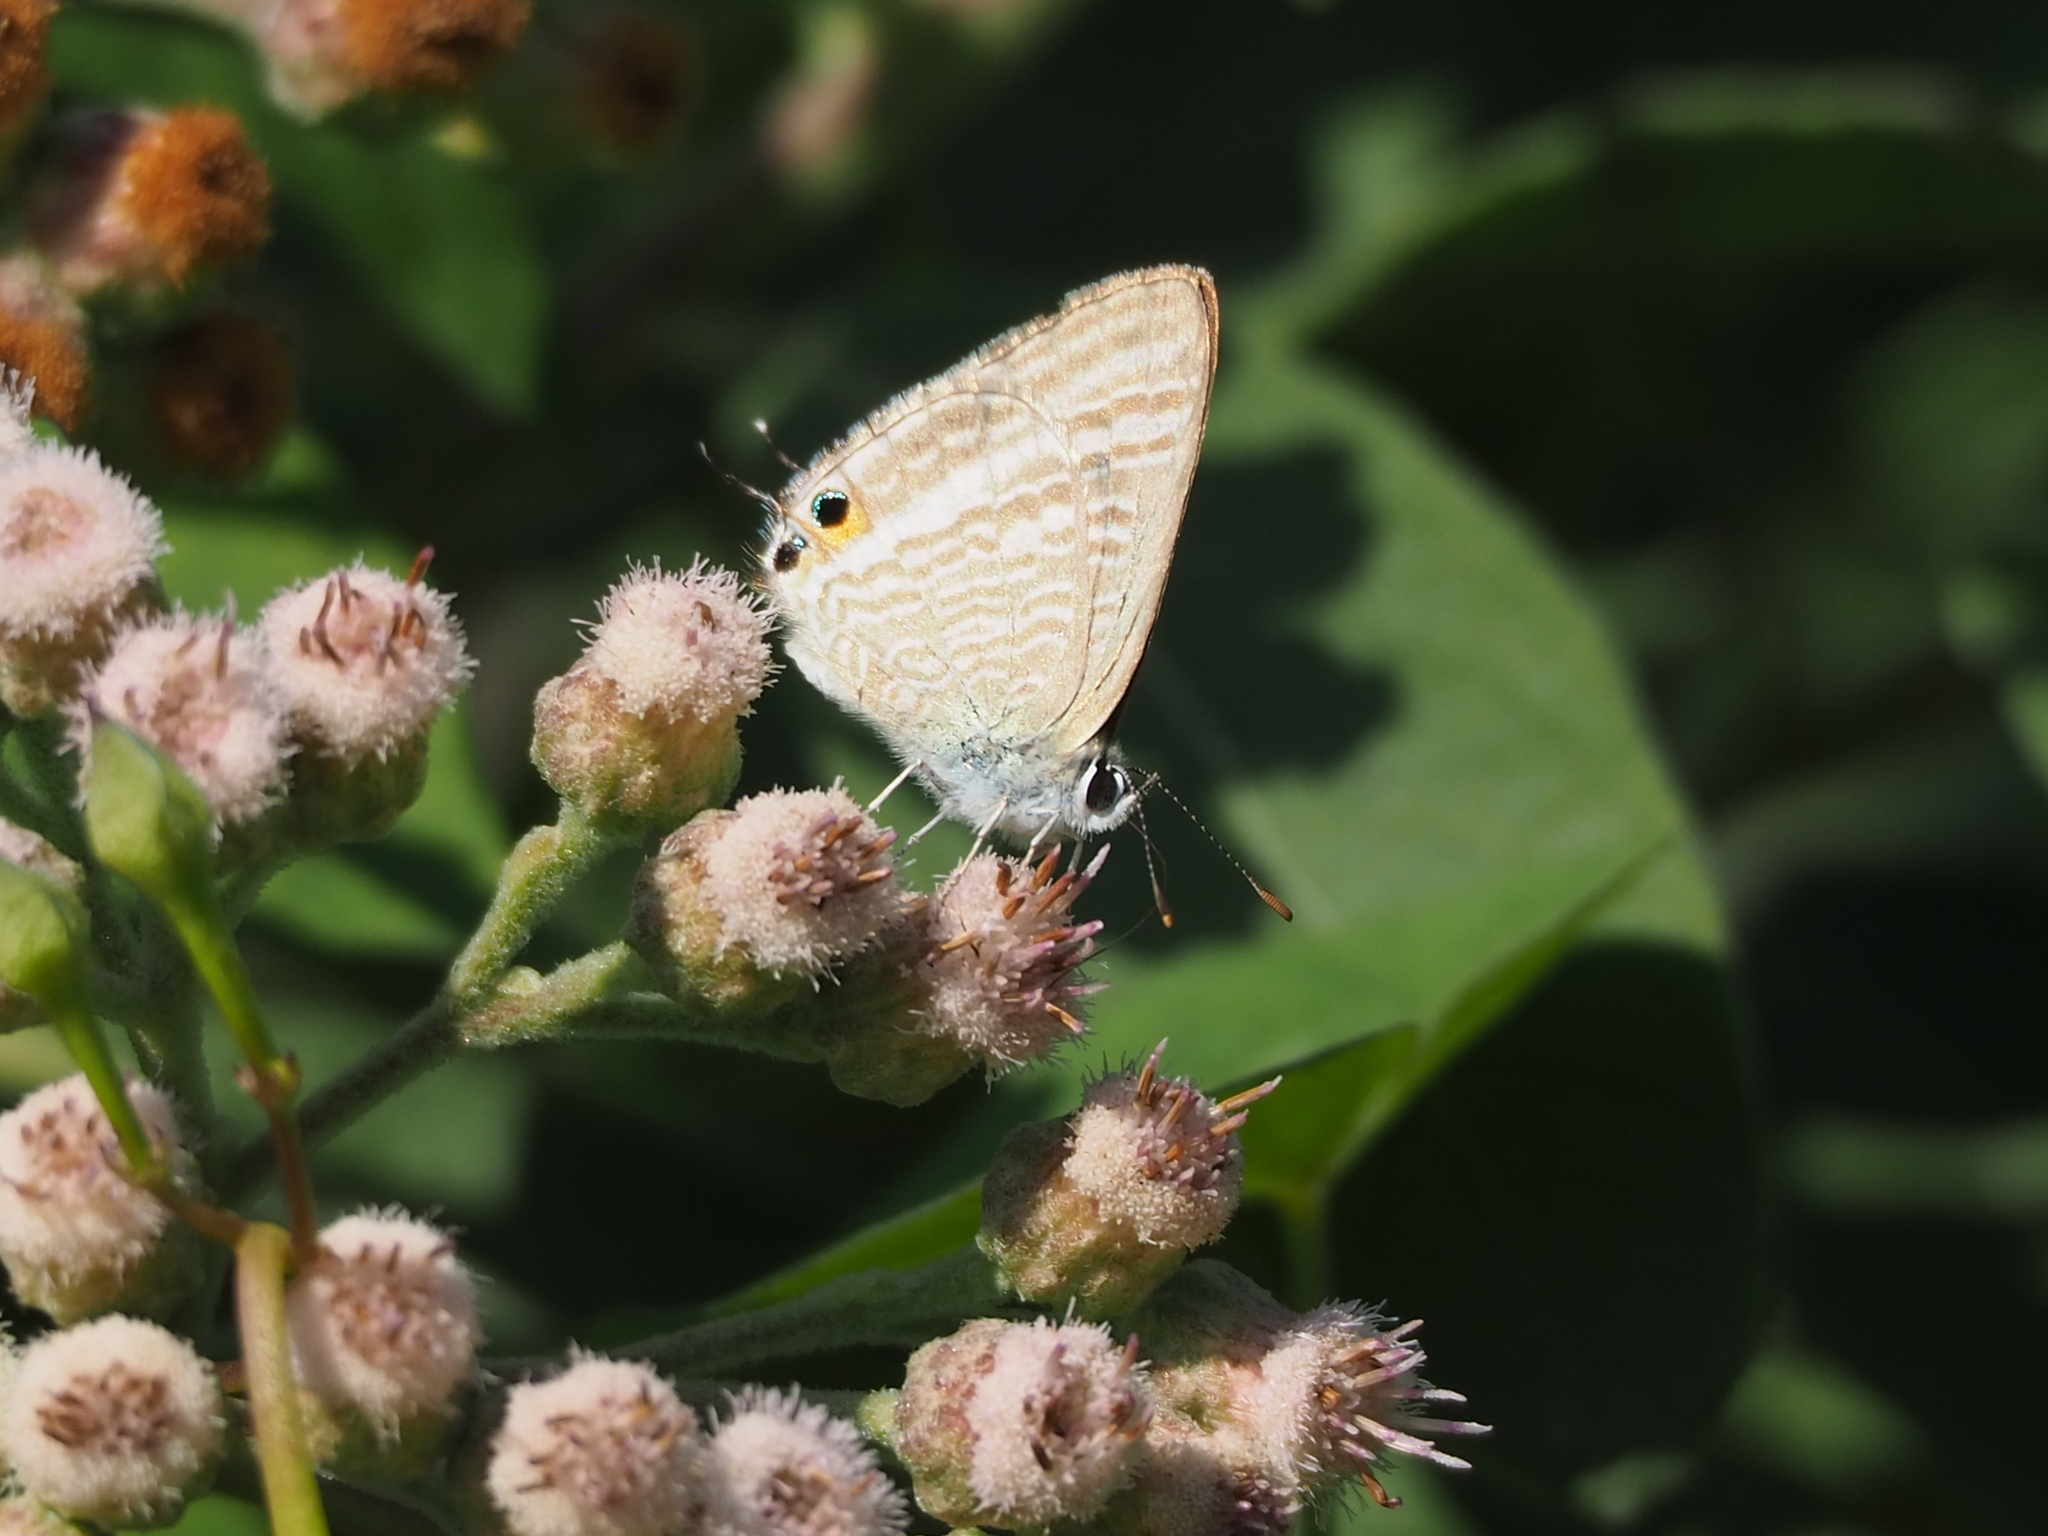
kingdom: Animalia
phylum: Arthropoda
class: Insecta
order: Lepidoptera
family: Lycaenidae
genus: Lampides
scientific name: Lampides boeticus
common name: Long-tailed blue
